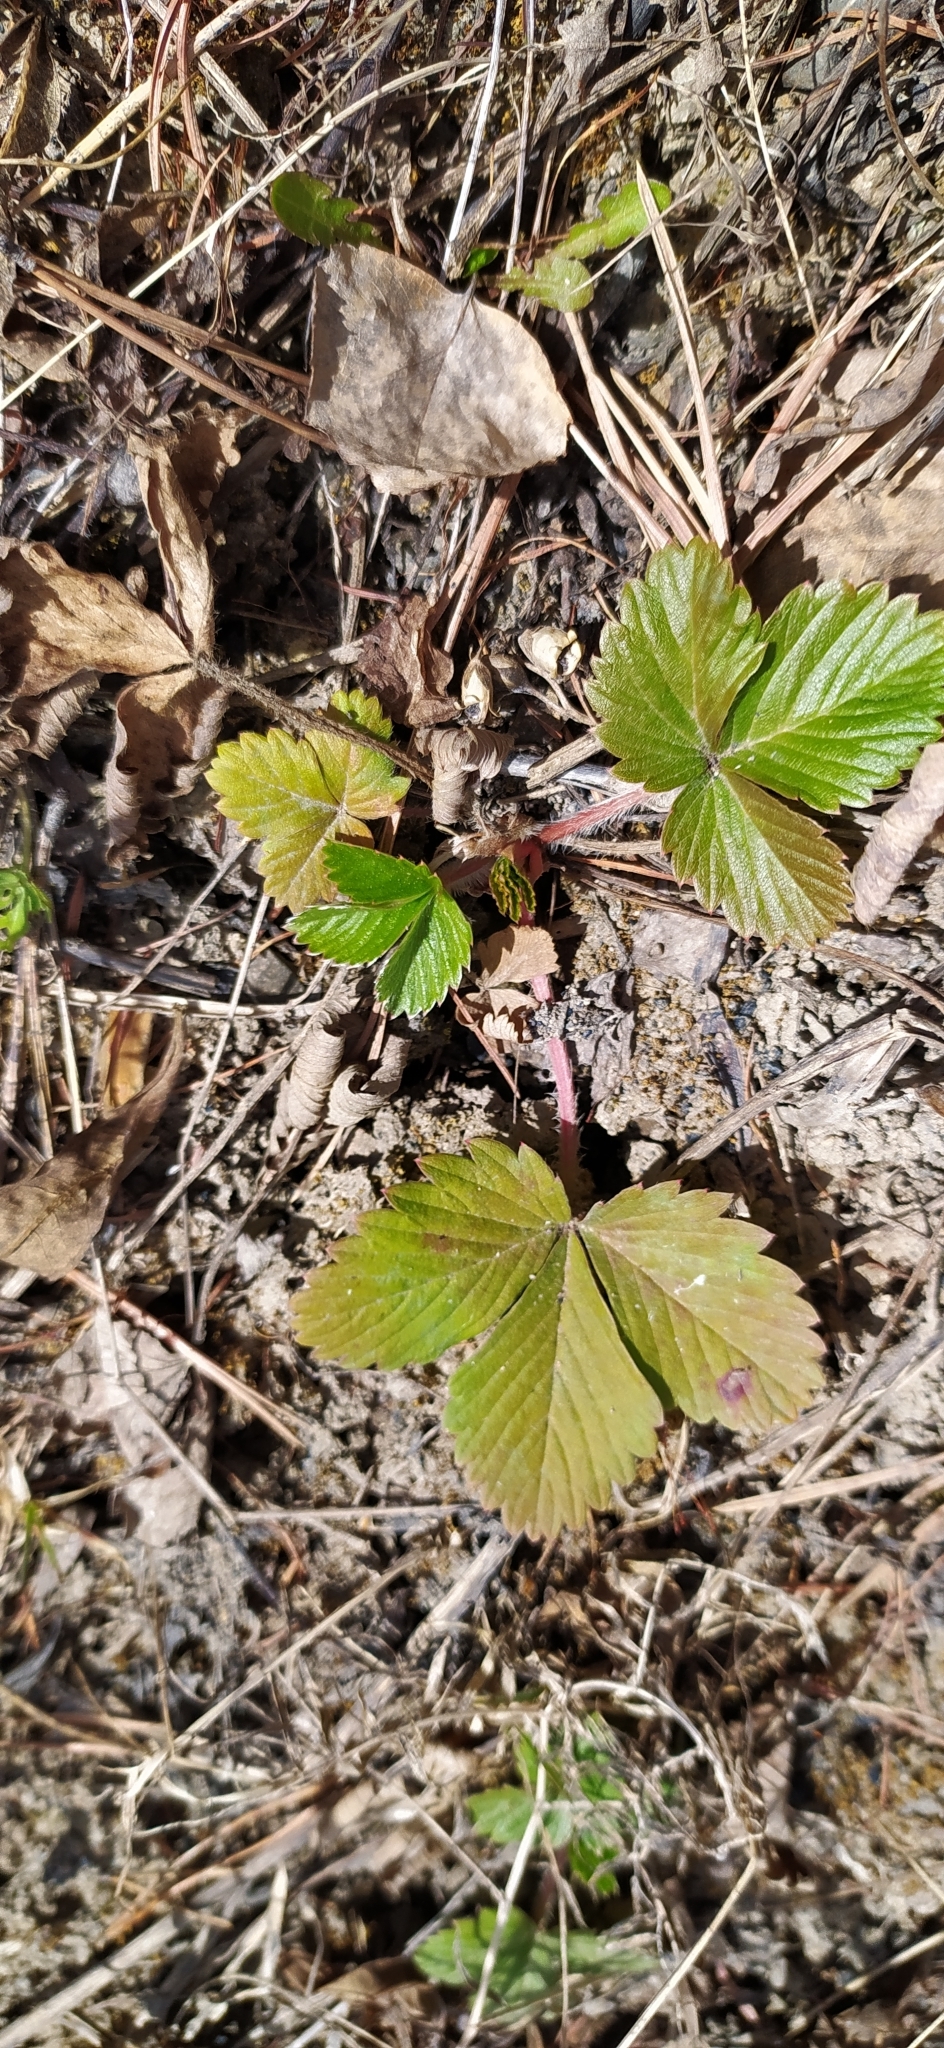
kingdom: Plantae
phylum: Tracheophyta
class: Magnoliopsida
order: Rosales
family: Rosaceae
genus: Fragaria
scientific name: Fragaria vesca
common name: Wild strawberry
